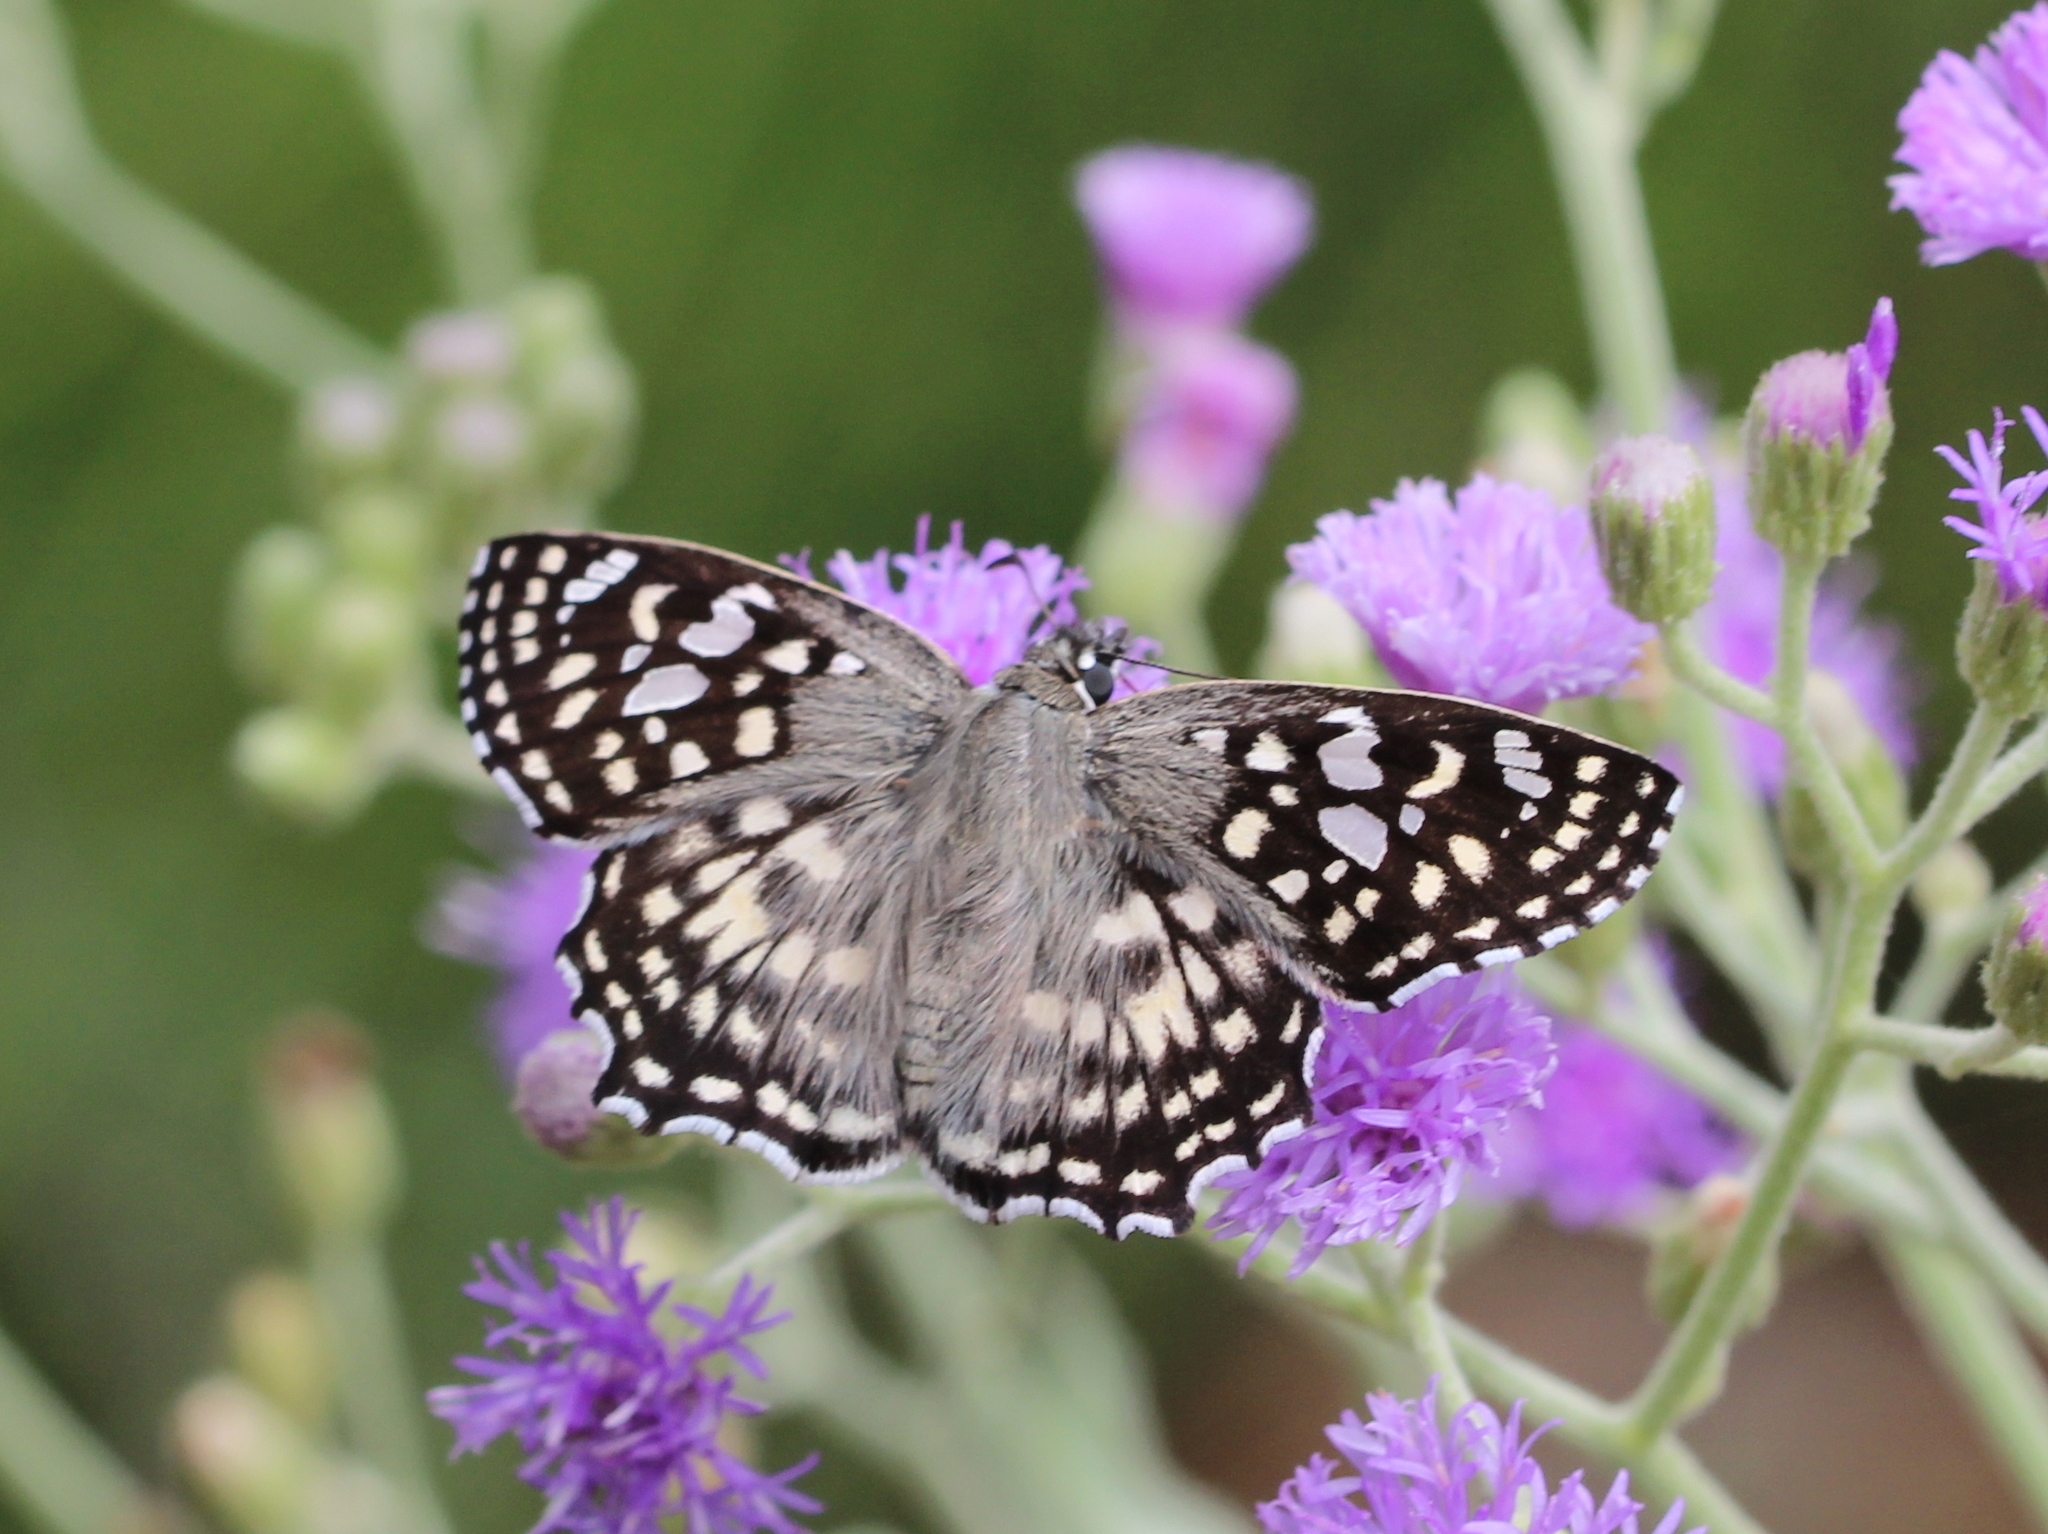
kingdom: Animalia
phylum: Arthropoda
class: Insecta
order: Lepidoptera
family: Hesperiidae
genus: Caprona
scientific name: Caprona agama
